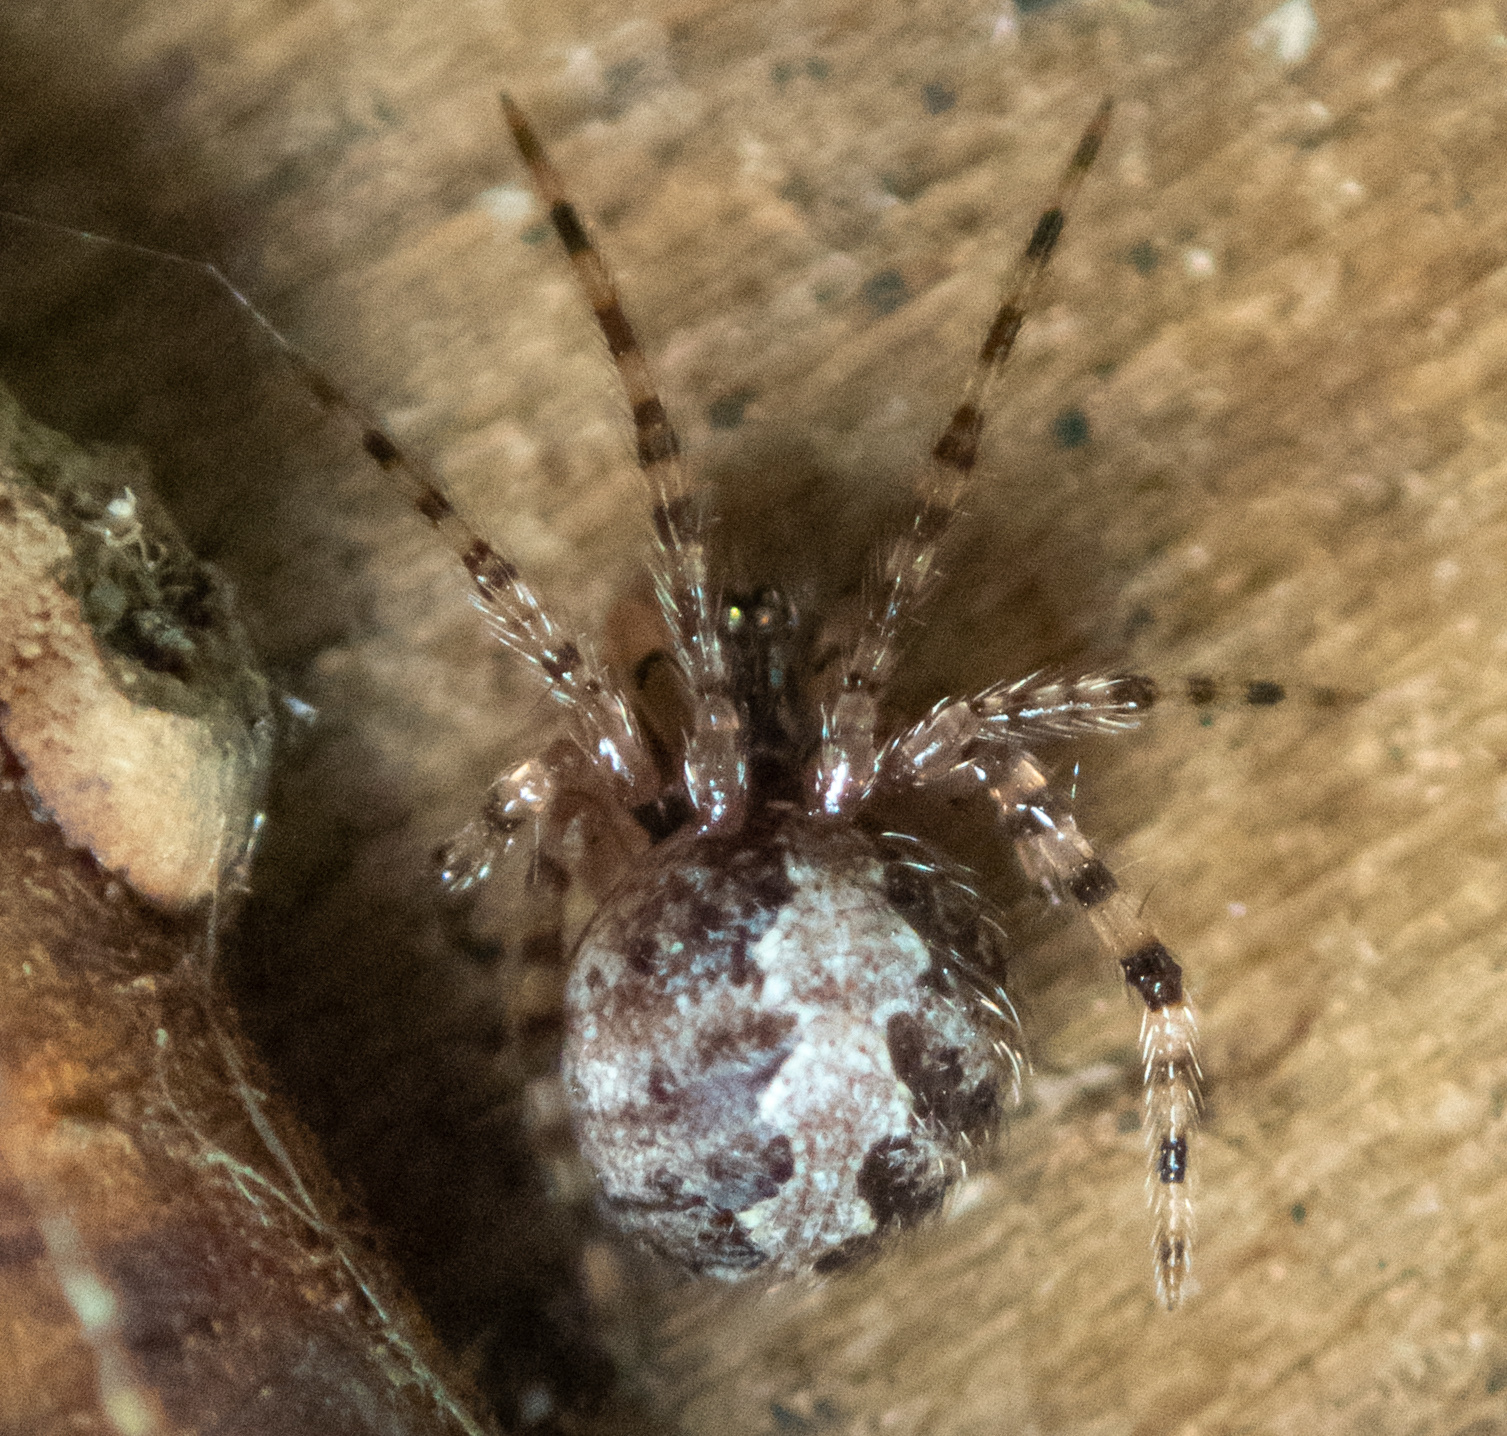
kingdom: Animalia
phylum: Arthropoda
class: Arachnida
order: Araneae
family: Theridiidae
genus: Theridion
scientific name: Theridion
